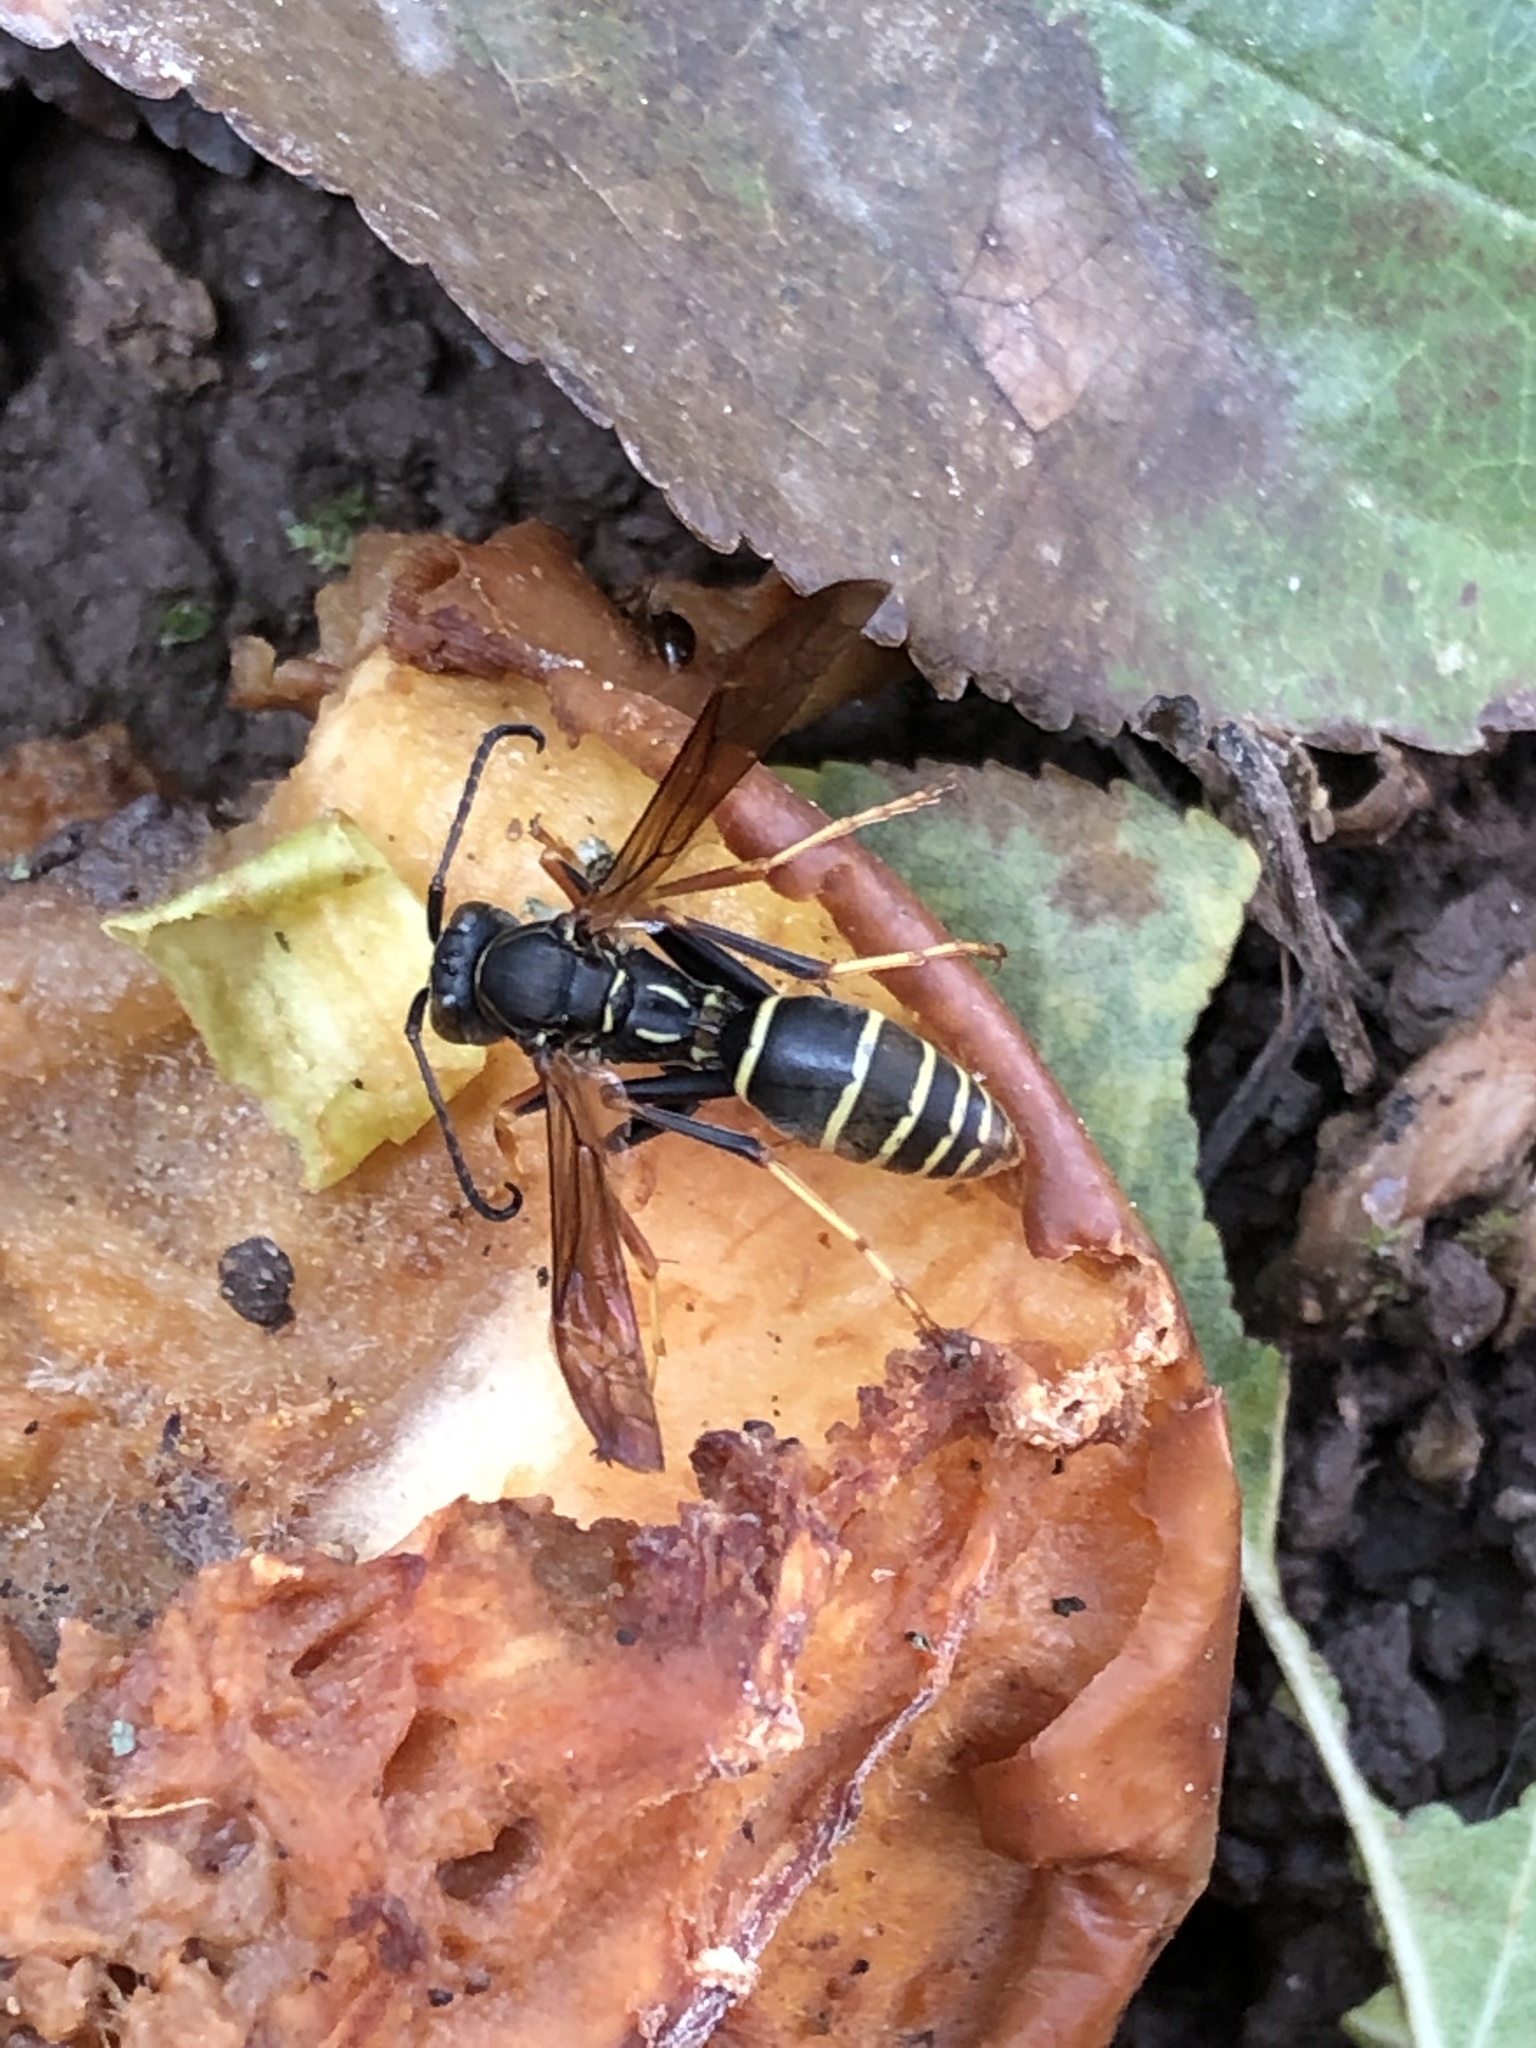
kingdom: Animalia
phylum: Arthropoda
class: Insecta
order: Hymenoptera
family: Eumenidae
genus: Polistes
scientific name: Polistes fuscatus
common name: Dark paper wasp
